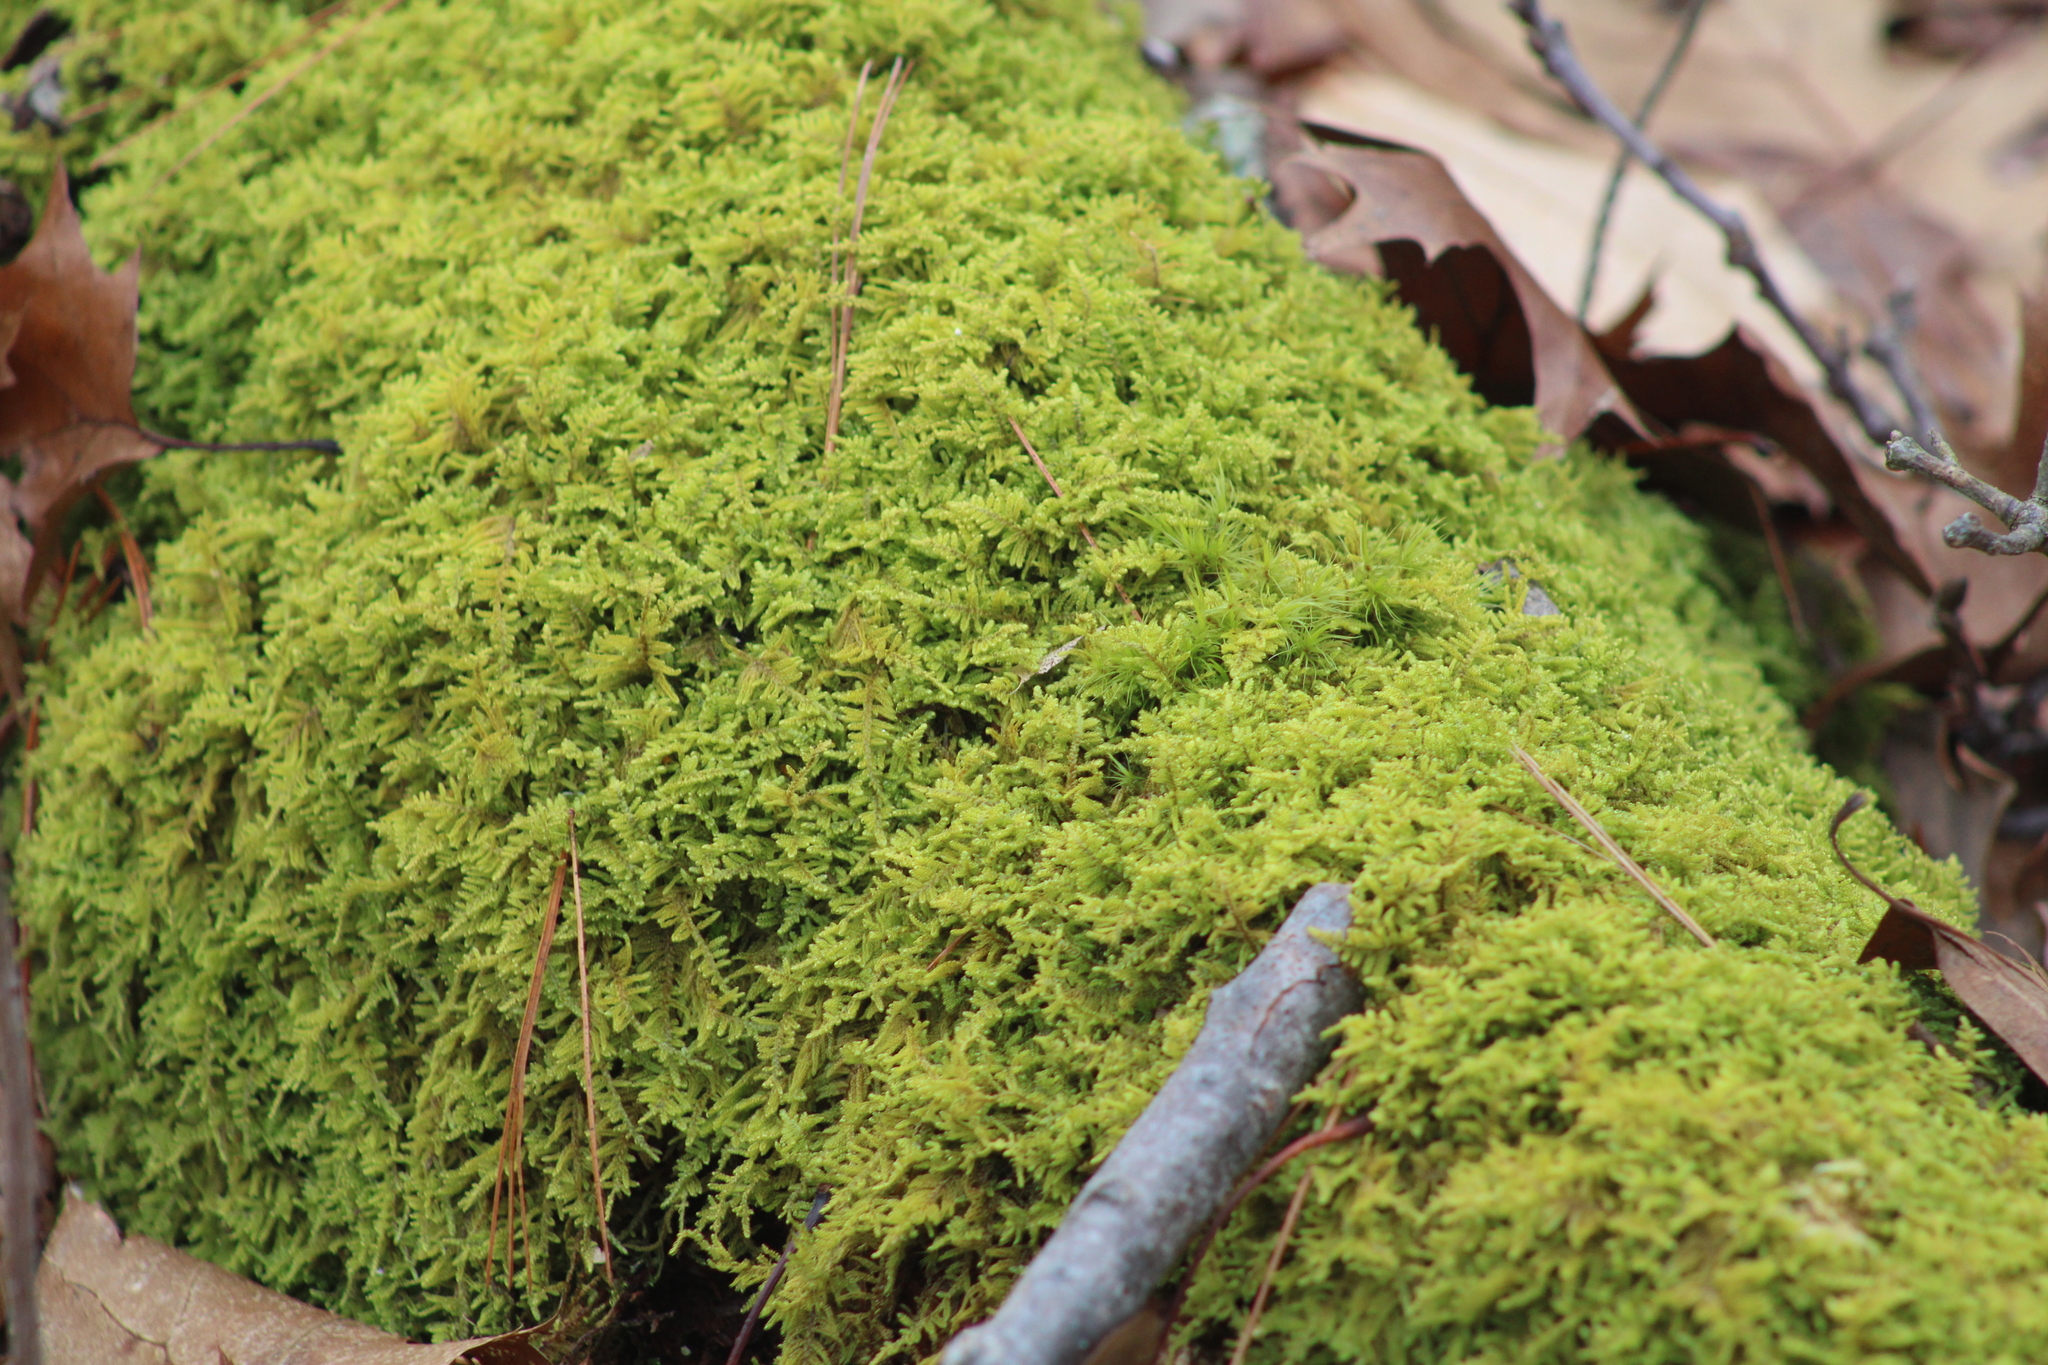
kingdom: Plantae
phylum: Bryophyta
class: Bryopsida
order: Hypnales
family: Callicladiaceae
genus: Callicladium
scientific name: Callicladium imponens
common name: Brocade moss
